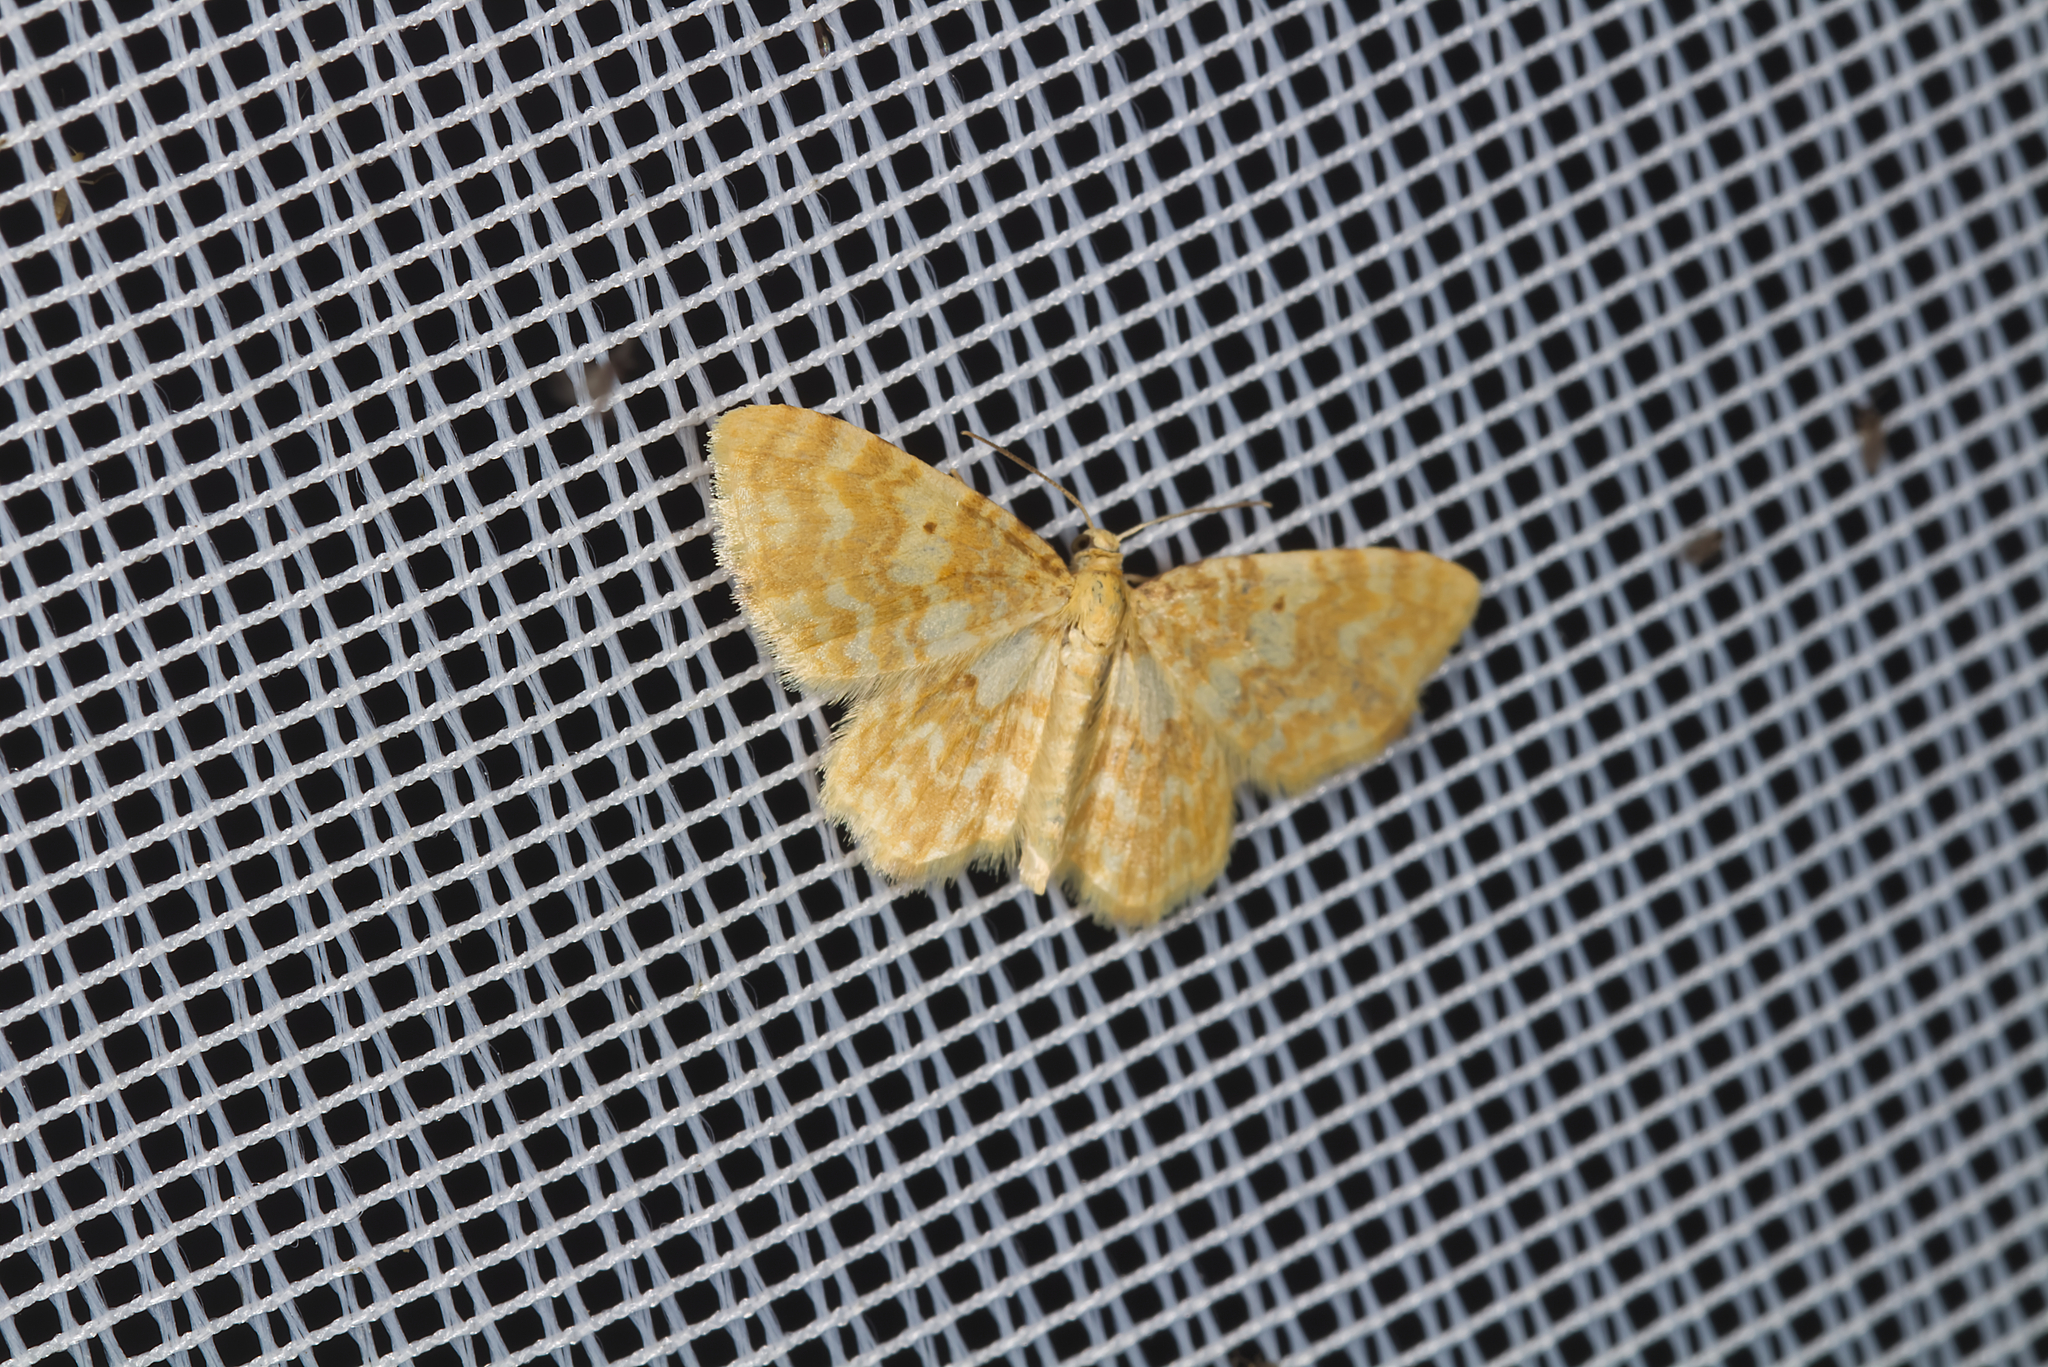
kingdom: Animalia
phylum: Arthropoda
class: Insecta
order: Lepidoptera
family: Geometridae
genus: Hydrelia
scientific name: Hydrelia flammeolaria
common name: Small yellow wave
